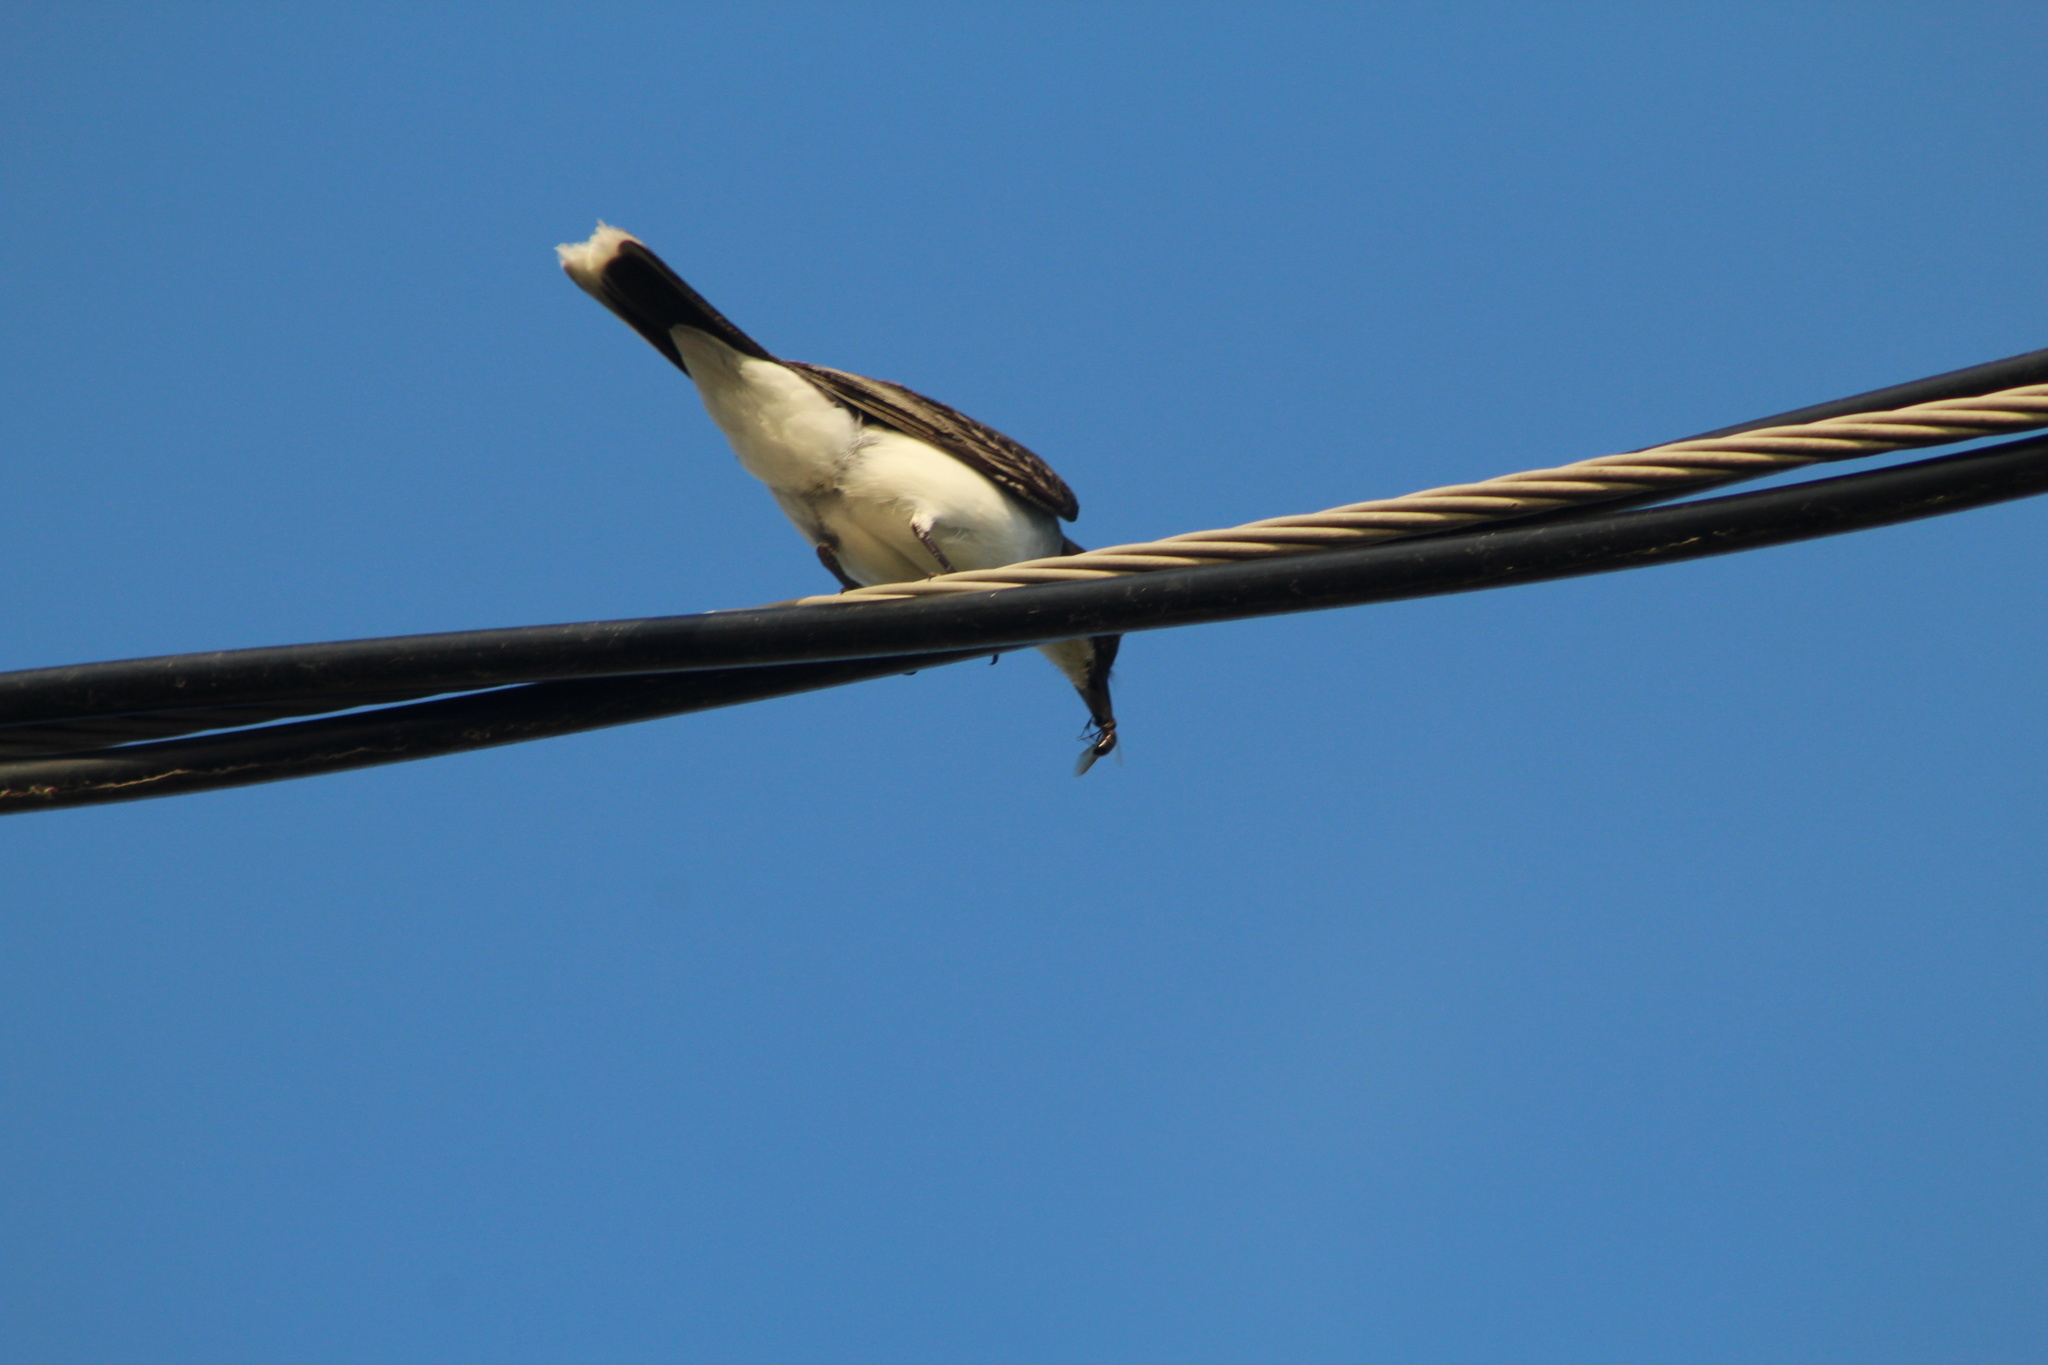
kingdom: Animalia
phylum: Chordata
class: Aves
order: Passeriformes
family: Tyrannidae
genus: Tyrannus
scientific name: Tyrannus tyrannus
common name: Eastern kingbird
